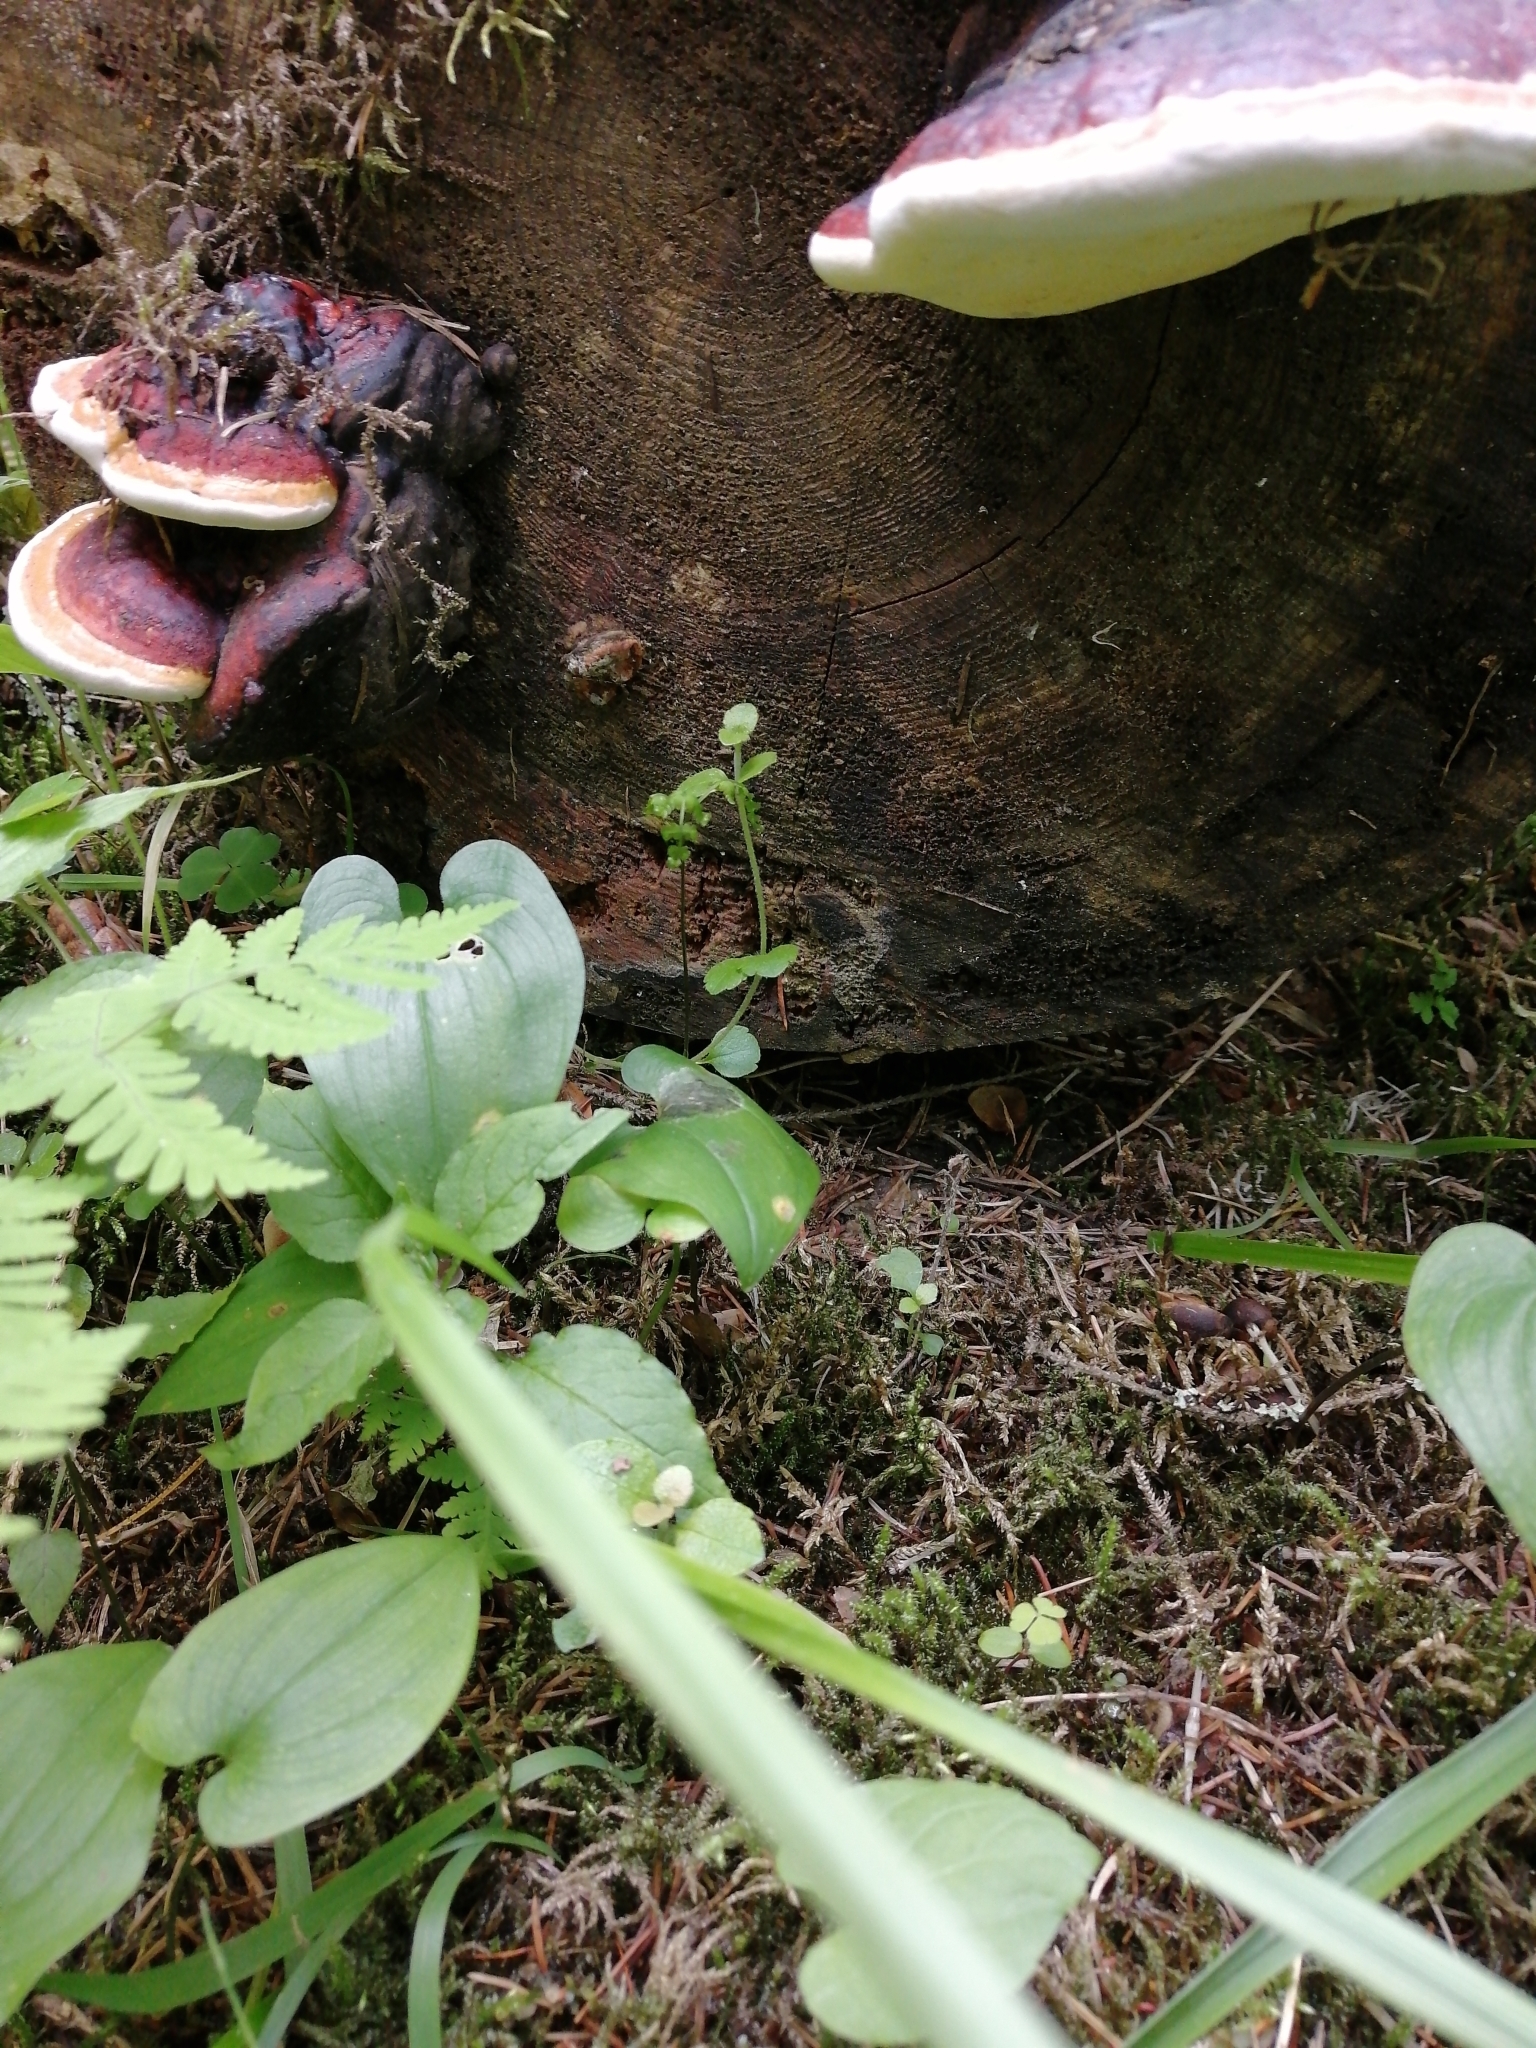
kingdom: Fungi
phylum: Basidiomycota
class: Agaricomycetes
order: Polyporales
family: Fomitopsidaceae
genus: Fomitopsis
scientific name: Fomitopsis pinicola
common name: Red-belted bracket
